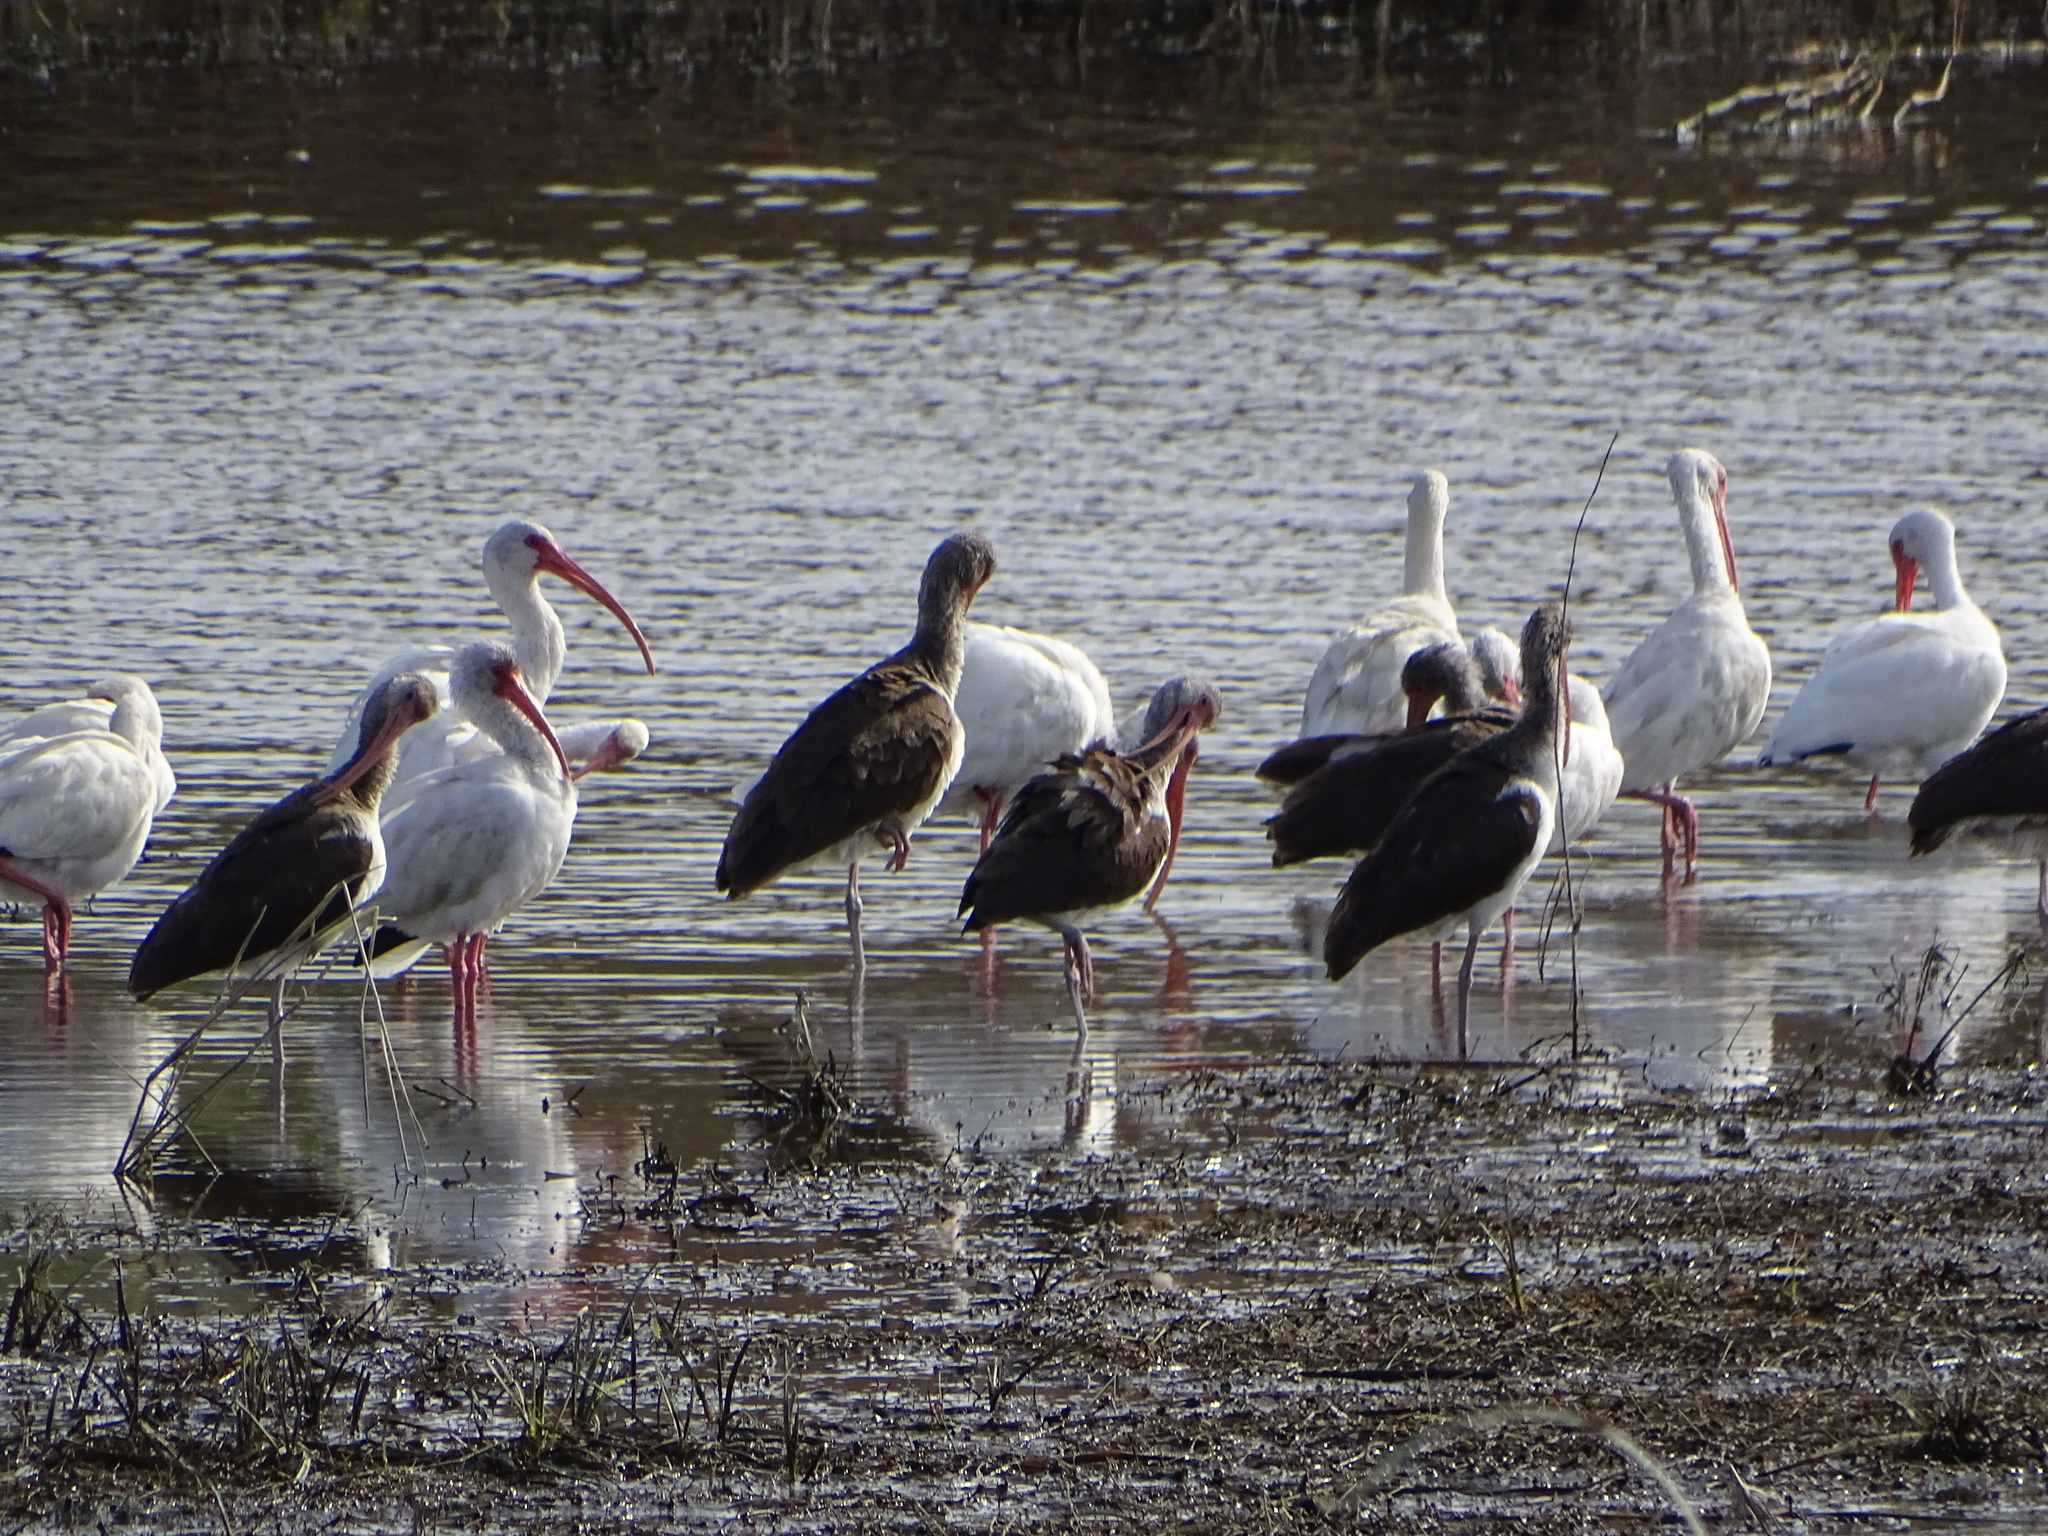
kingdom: Animalia
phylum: Chordata
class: Aves
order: Pelecaniformes
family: Threskiornithidae
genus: Eudocimus
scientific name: Eudocimus albus
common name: White ibis
